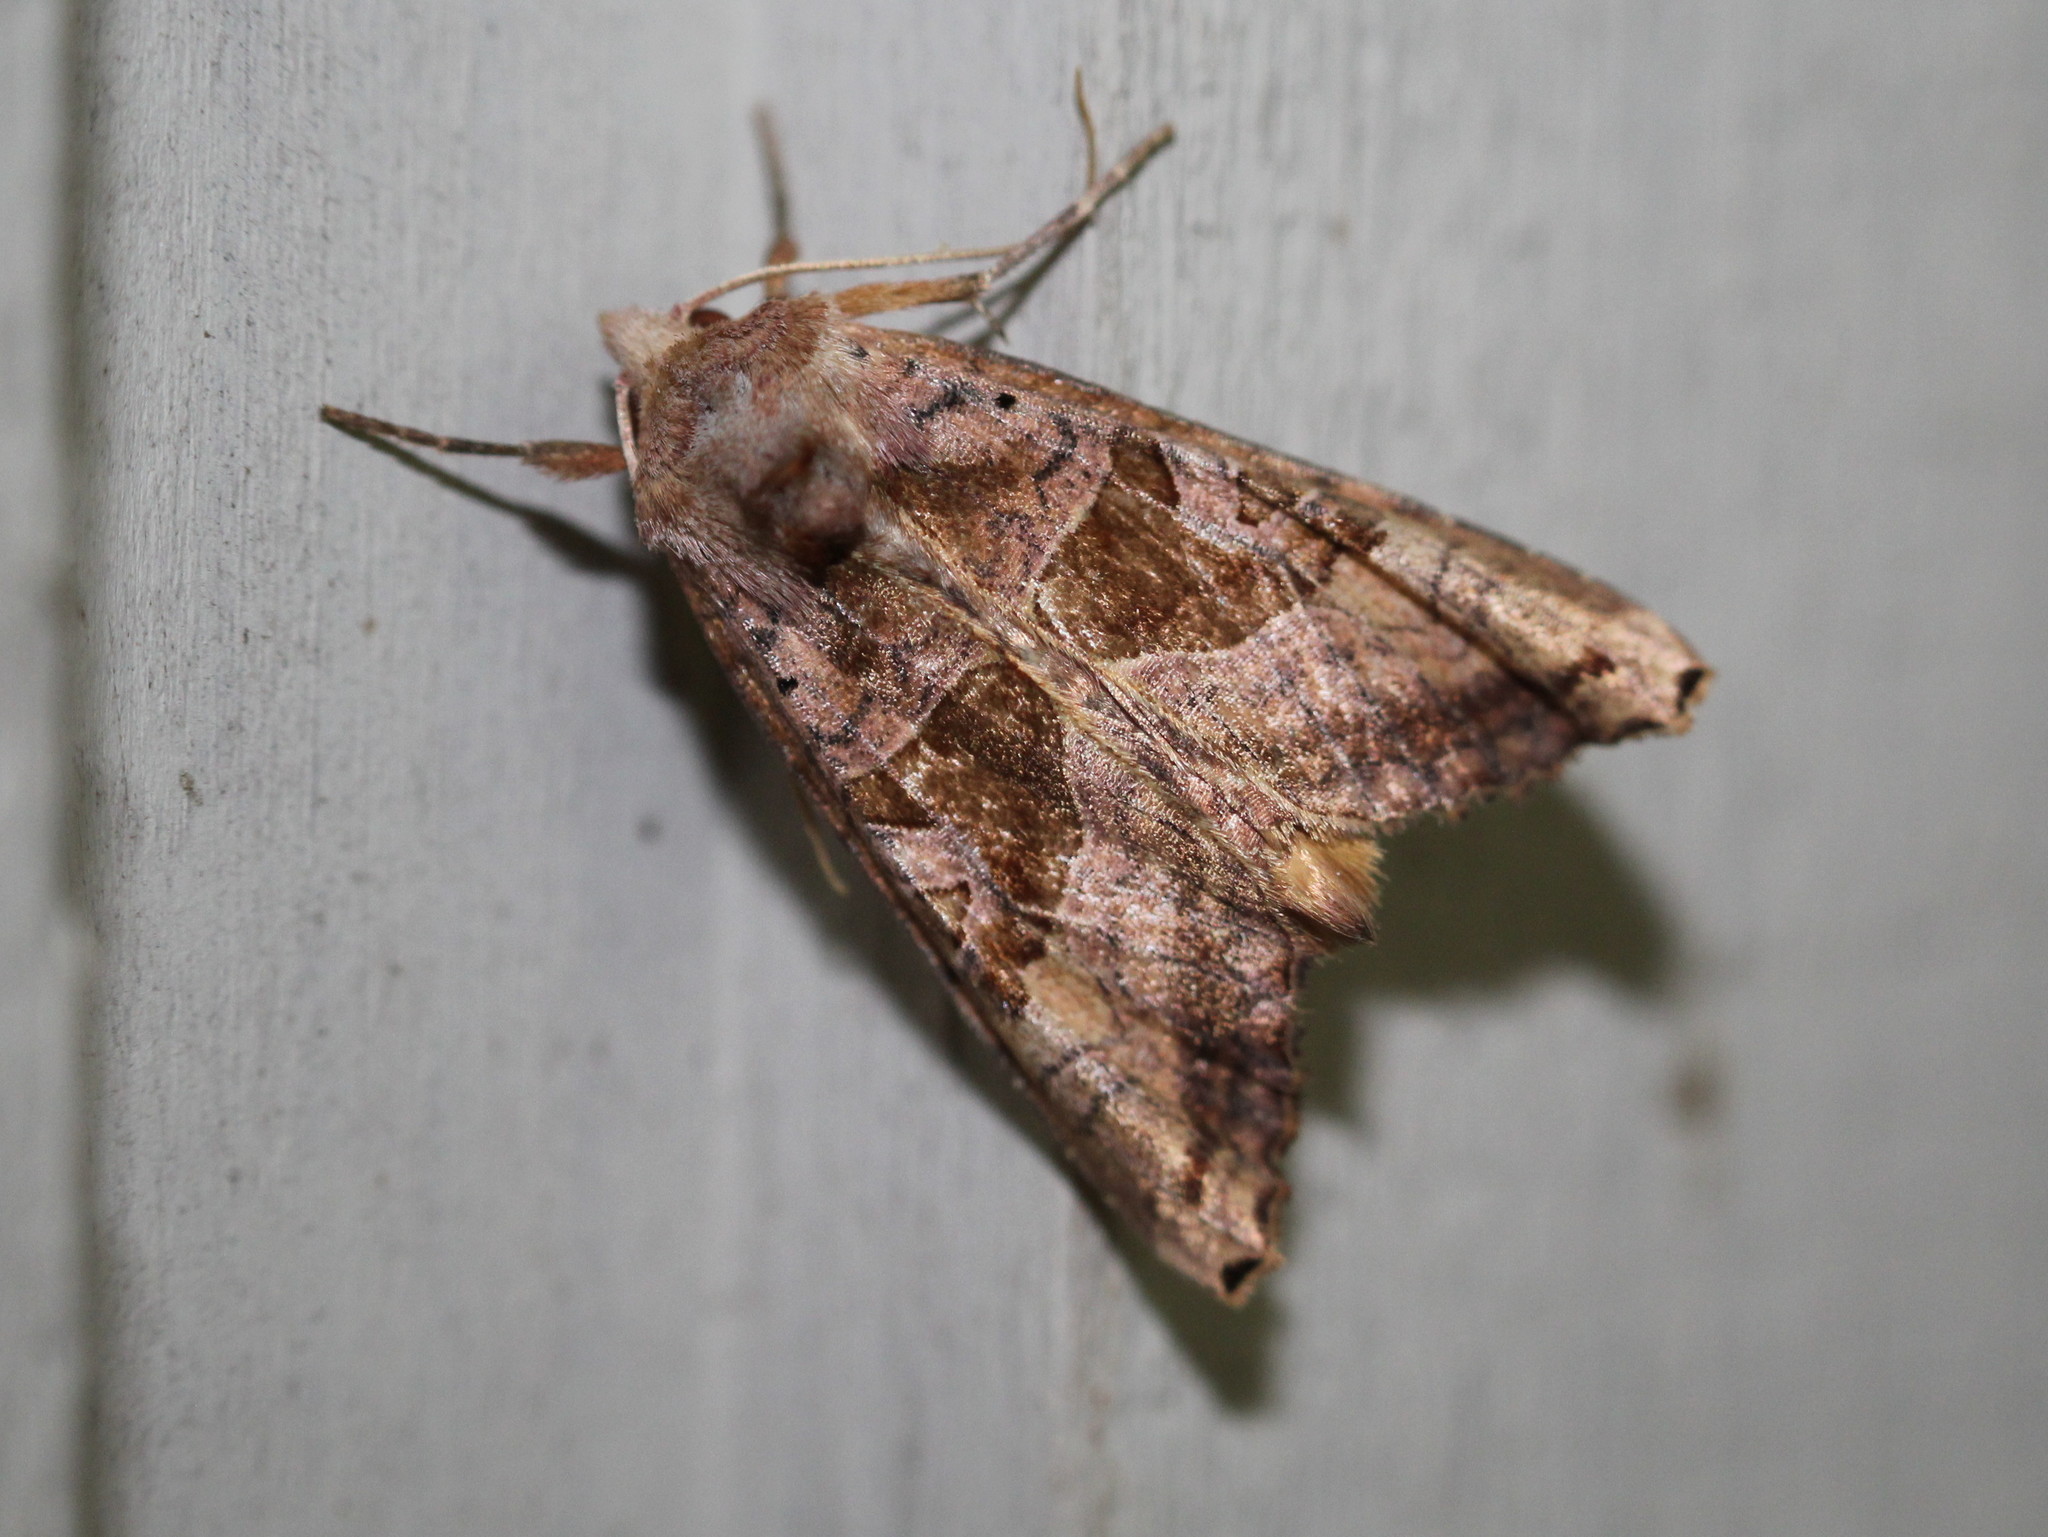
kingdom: Animalia
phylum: Arthropoda
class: Insecta
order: Lepidoptera
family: Noctuidae
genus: Phlogophora
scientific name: Phlogophora periculosa
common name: Brown angle shades
